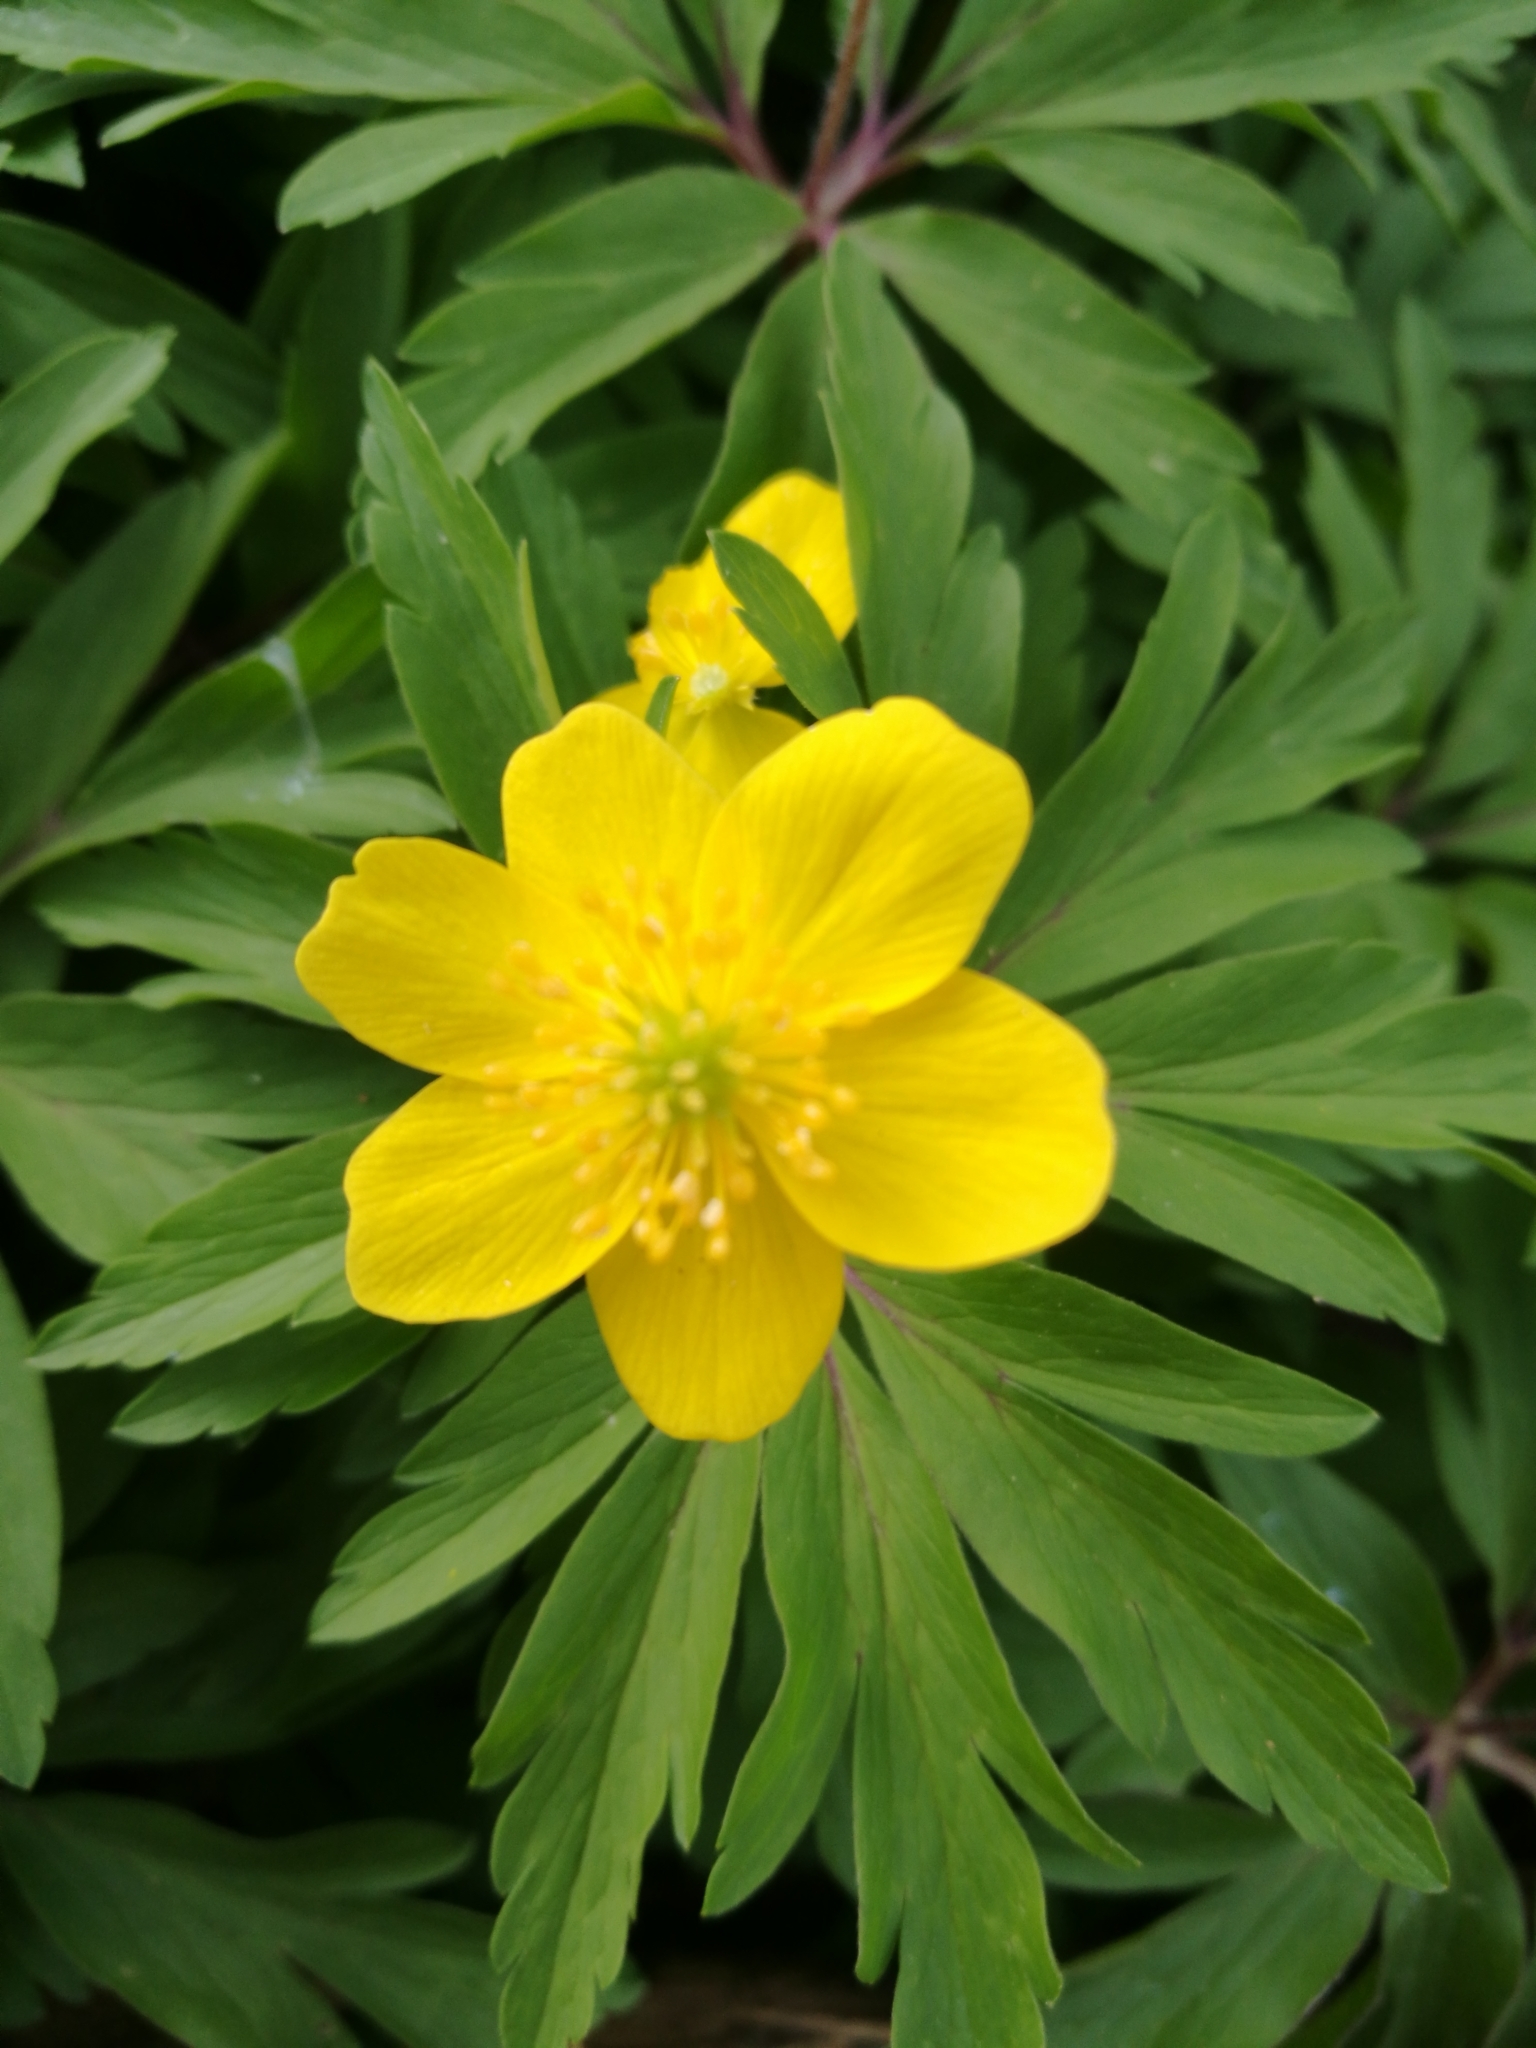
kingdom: Plantae
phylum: Tracheophyta
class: Magnoliopsida
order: Ranunculales
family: Ranunculaceae
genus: Anemone
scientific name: Anemone ranunculoides
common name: Yellow anemone
